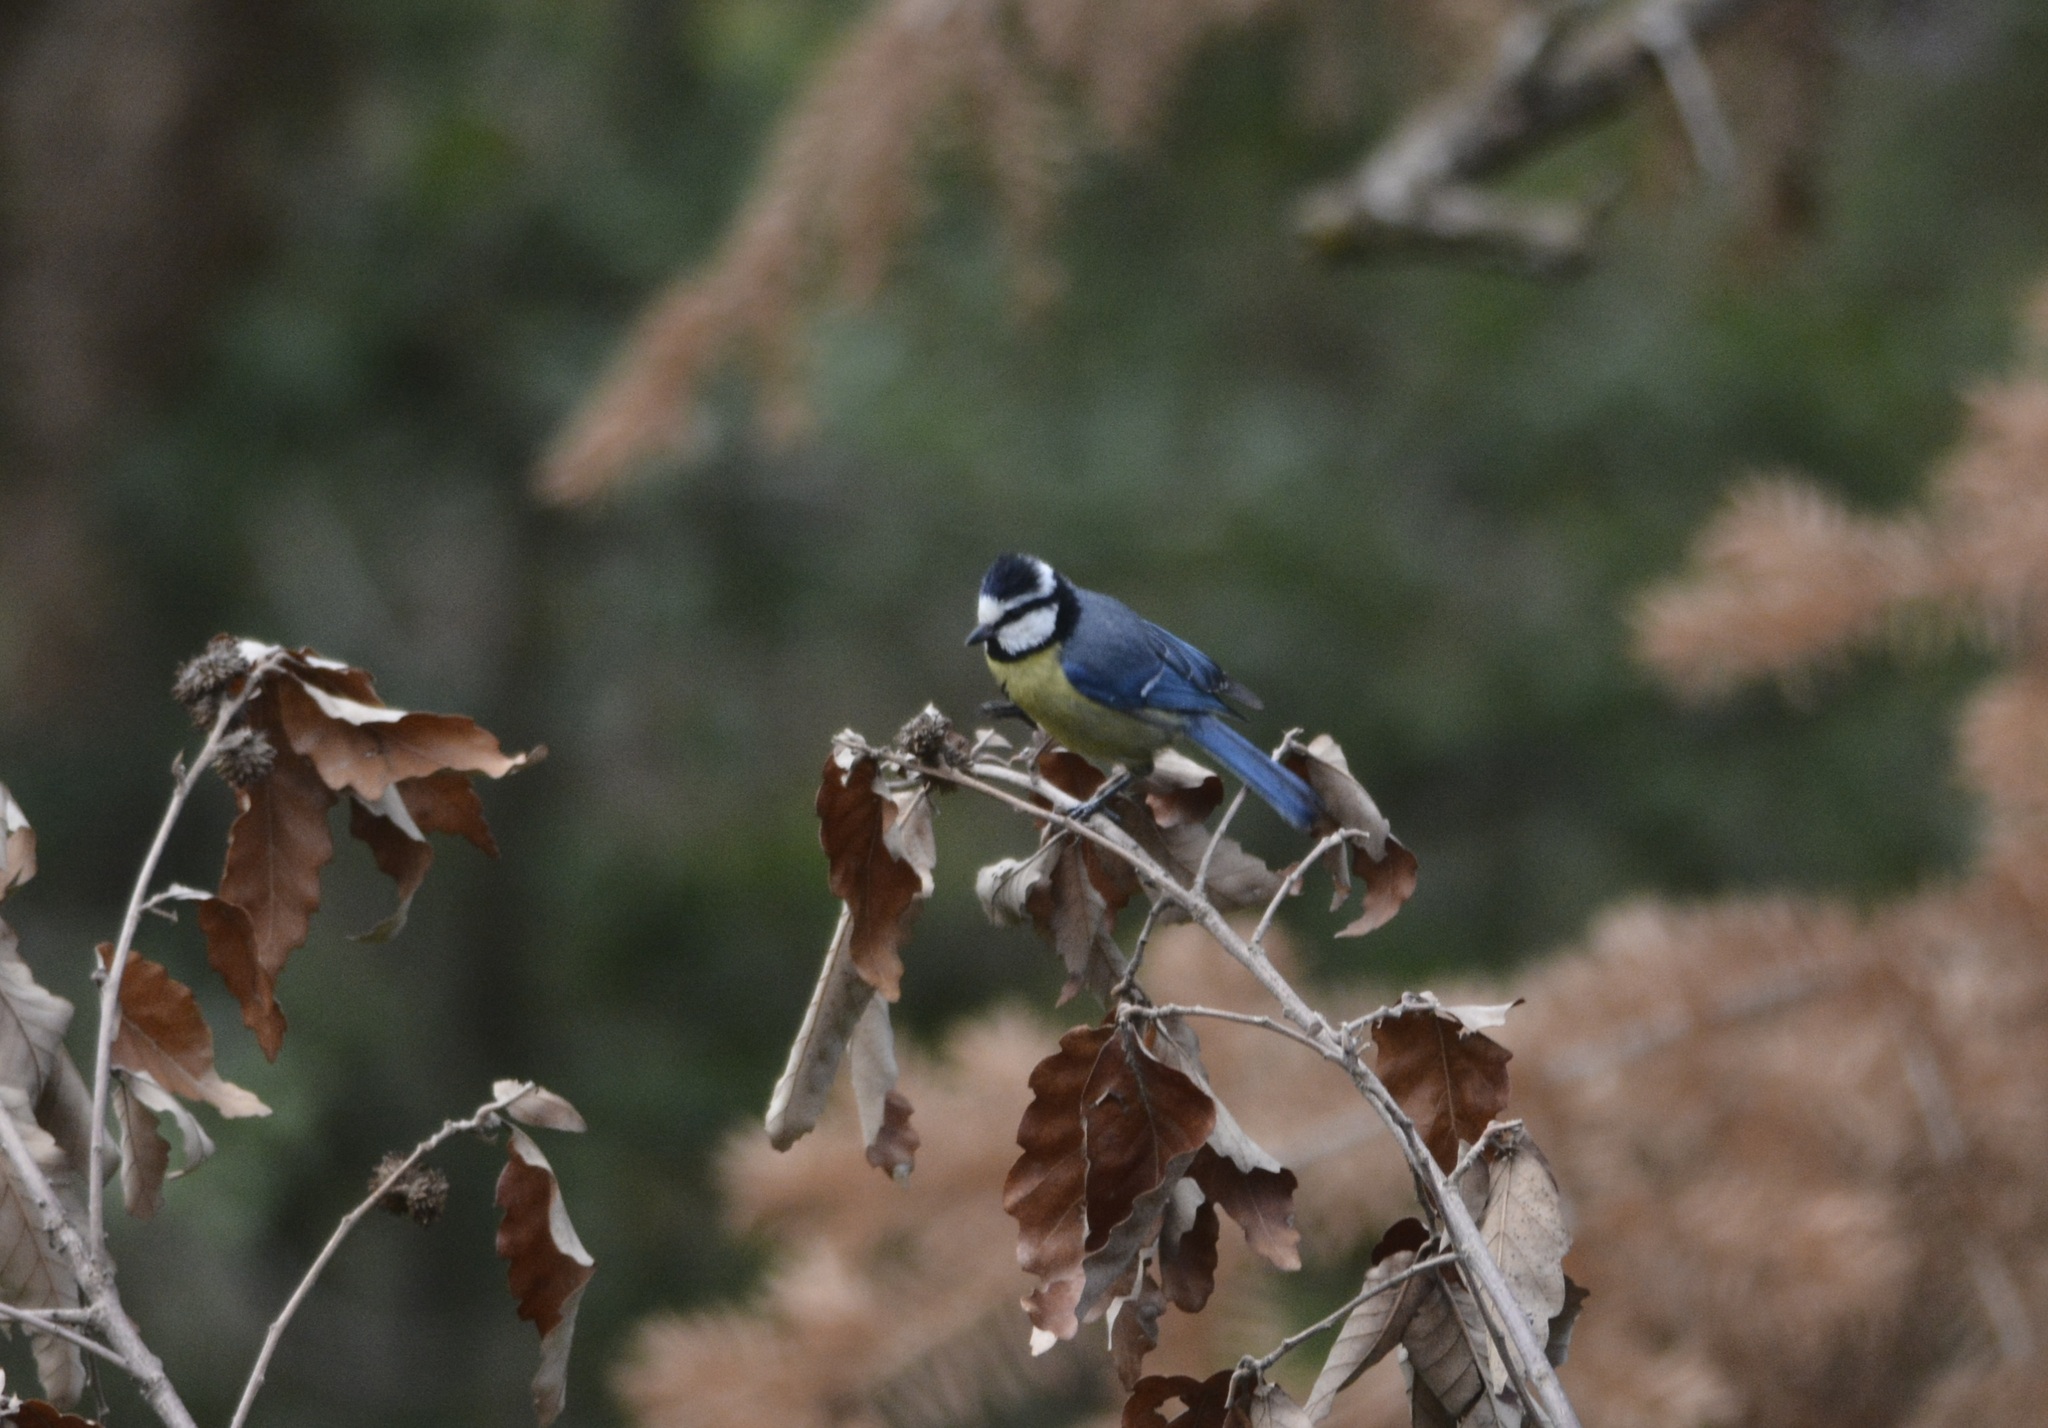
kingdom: Animalia
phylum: Chordata
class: Aves
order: Passeriformes
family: Paridae
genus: Cyanistes
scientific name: Cyanistes teneriffae
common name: African blue tit
